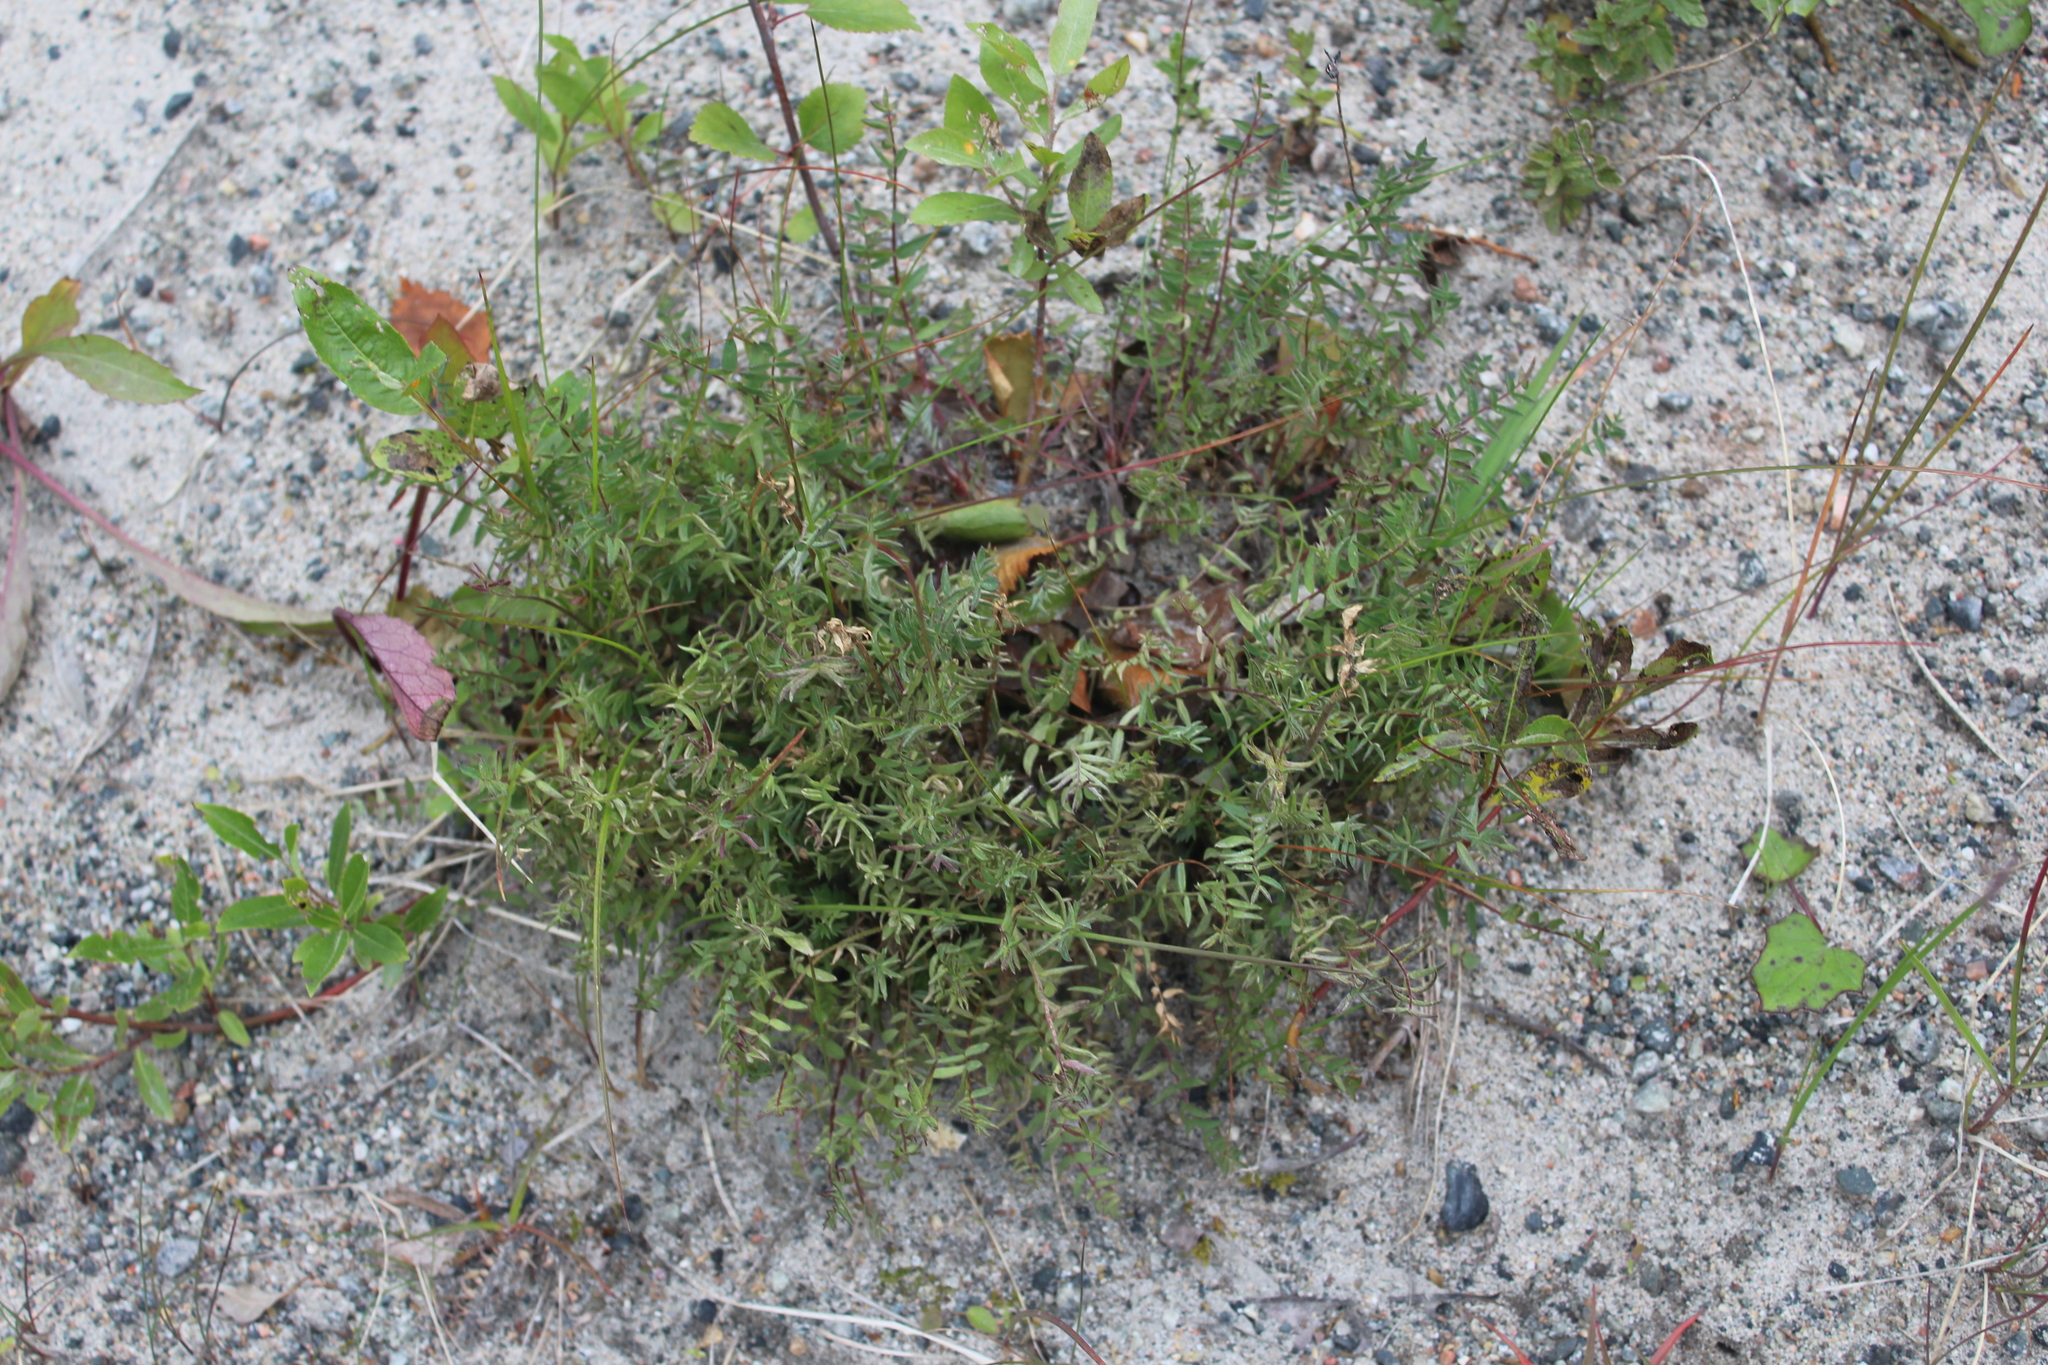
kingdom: Plantae
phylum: Tracheophyta
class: Magnoliopsida
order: Fabales
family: Fabaceae
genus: Oxytropis
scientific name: Oxytropis sordida
